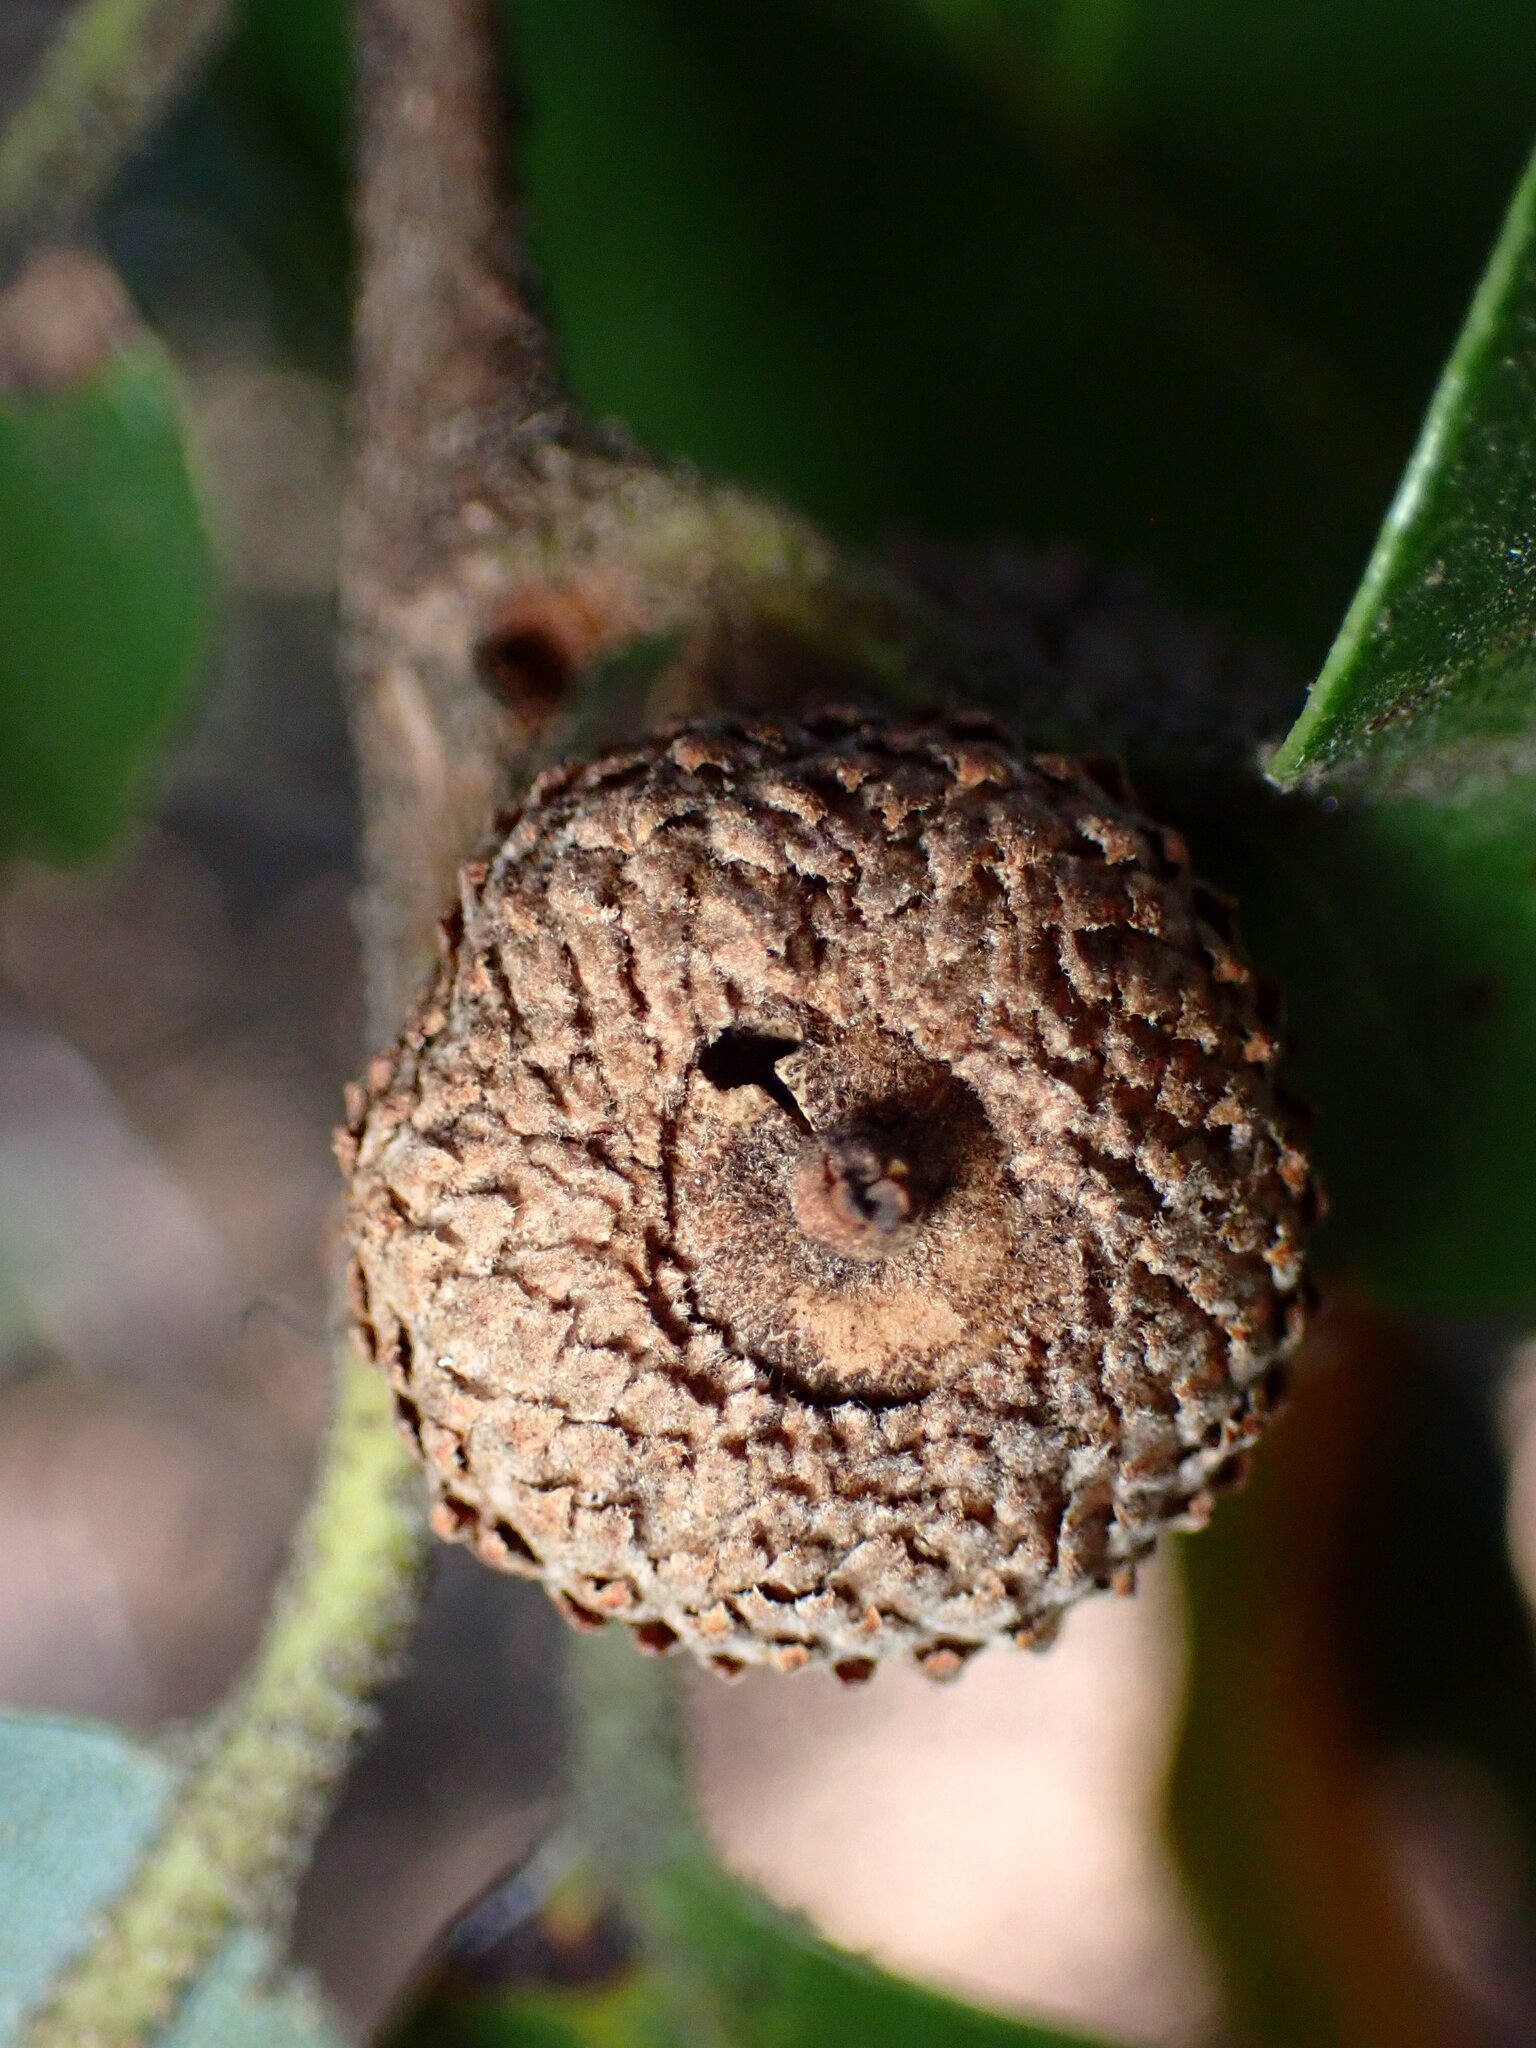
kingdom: Animalia
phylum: Arthropoda
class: Insecta
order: Hymenoptera
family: Cynipidae
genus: Andricus
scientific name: Andricus
